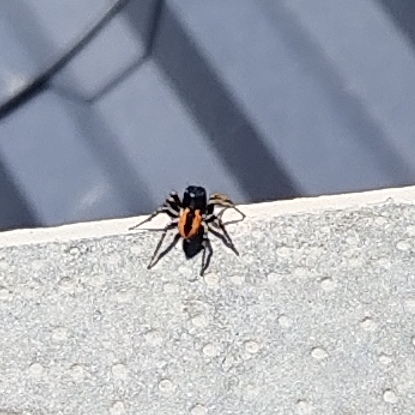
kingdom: Animalia
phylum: Arthropoda
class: Arachnida
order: Araneae
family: Salticidae
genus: Philaeus
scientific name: Philaeus chrysops
